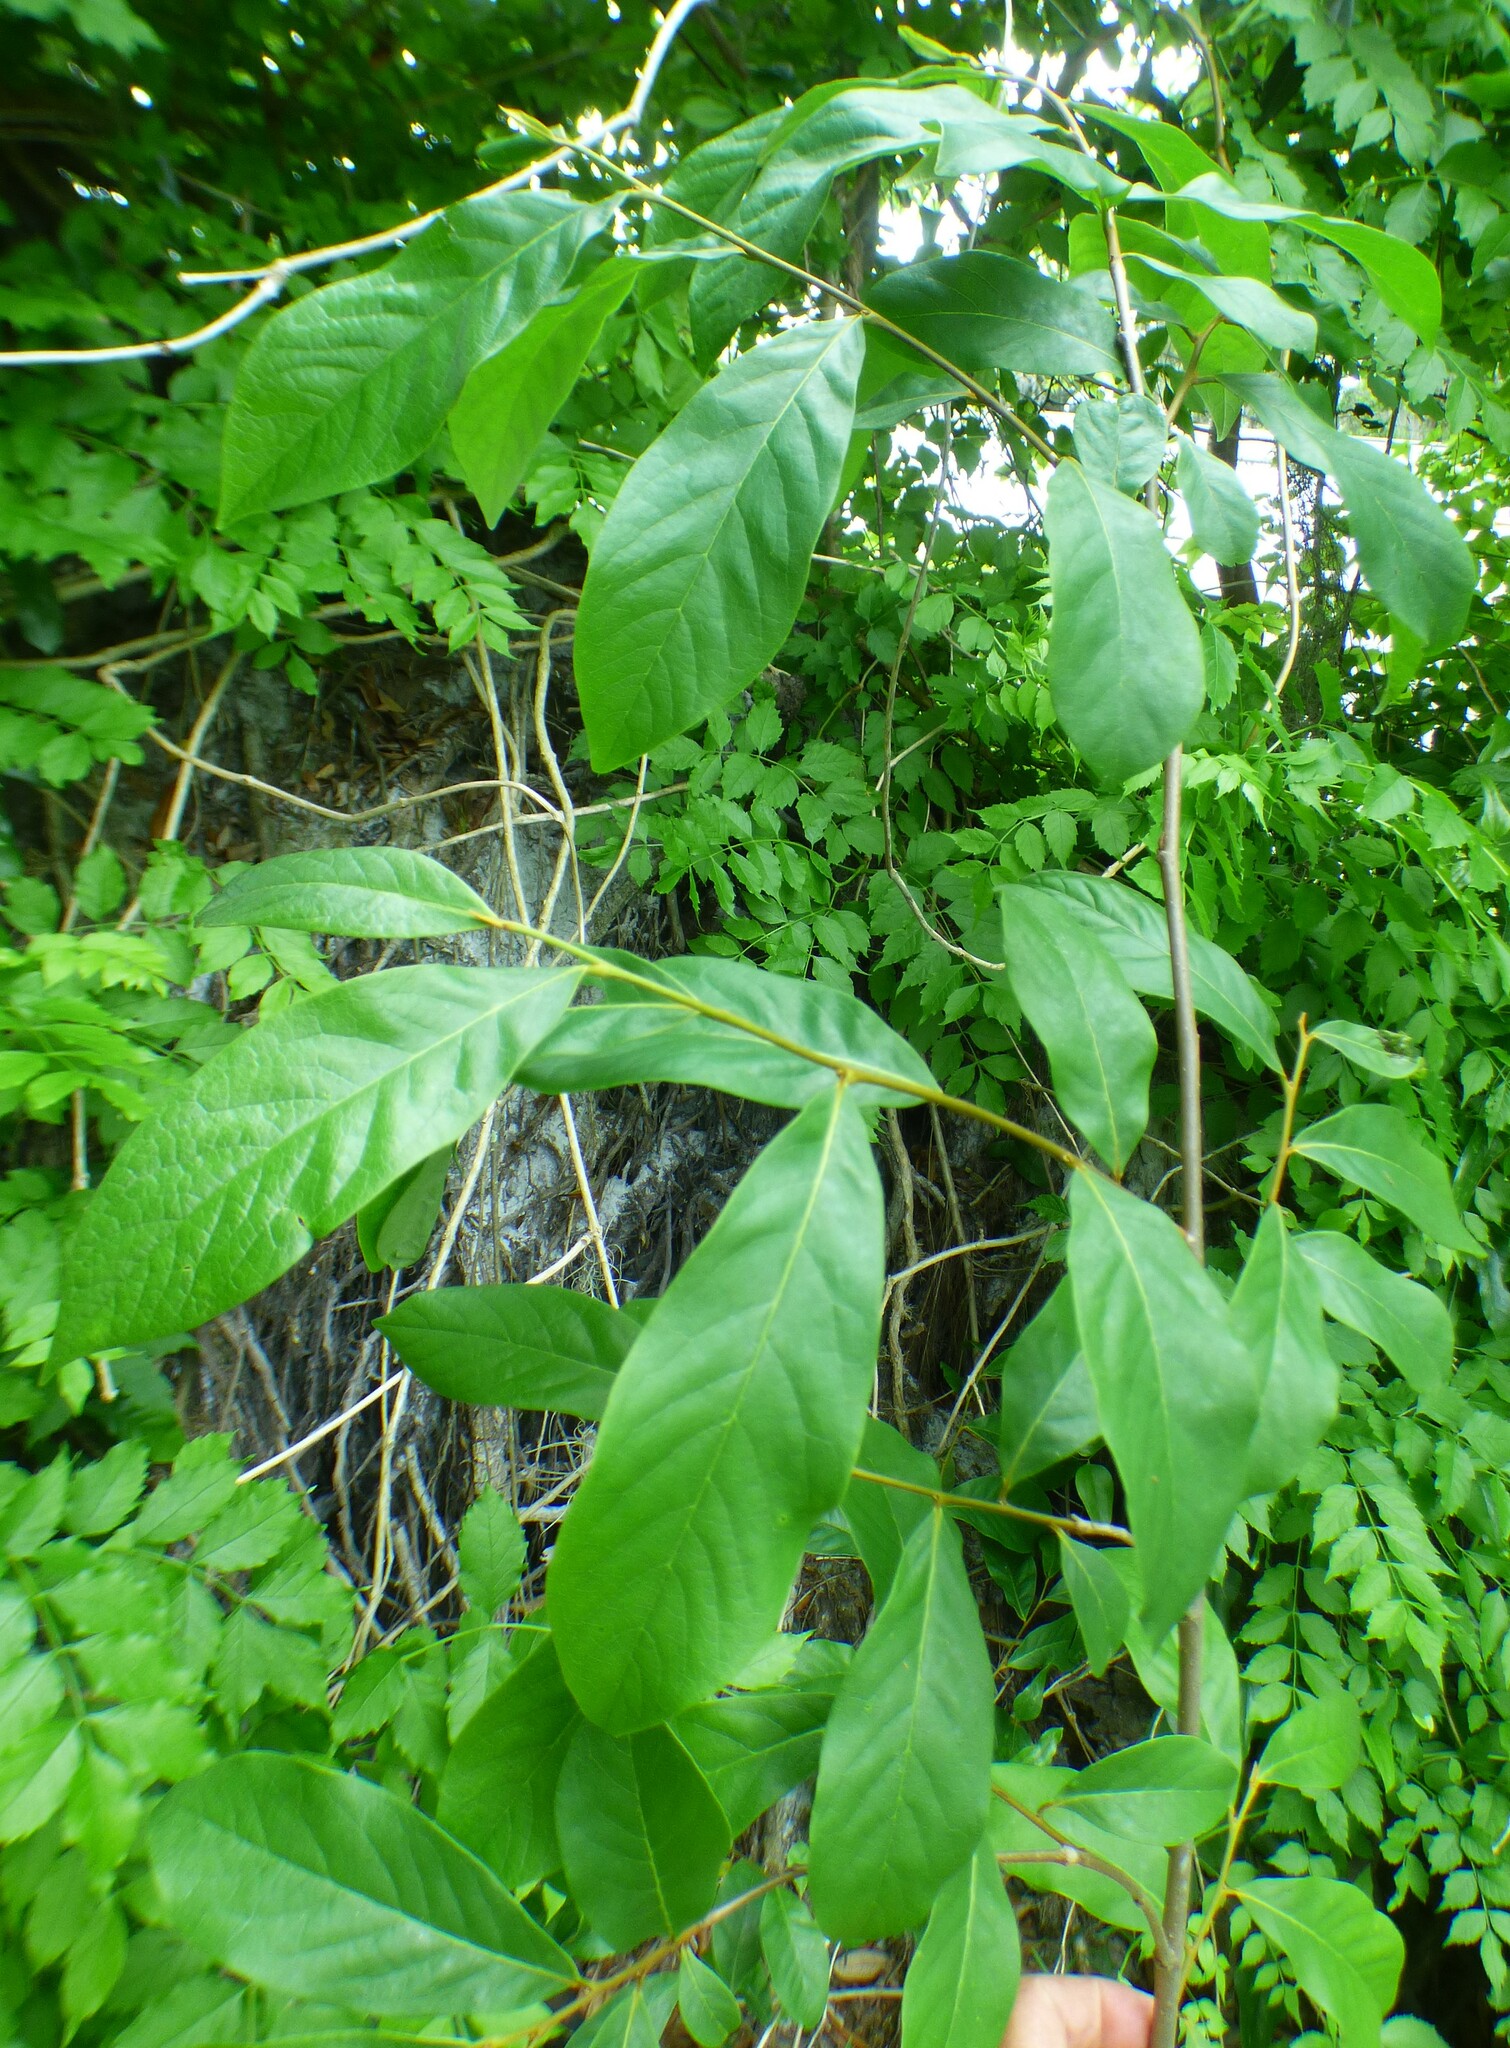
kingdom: Plantae
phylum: Tracheophyta
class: Magnoliopsida
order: Magnoliales
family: Annonaceae
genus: Asimina
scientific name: Asimina parviflora
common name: Dwarf pawpaw
